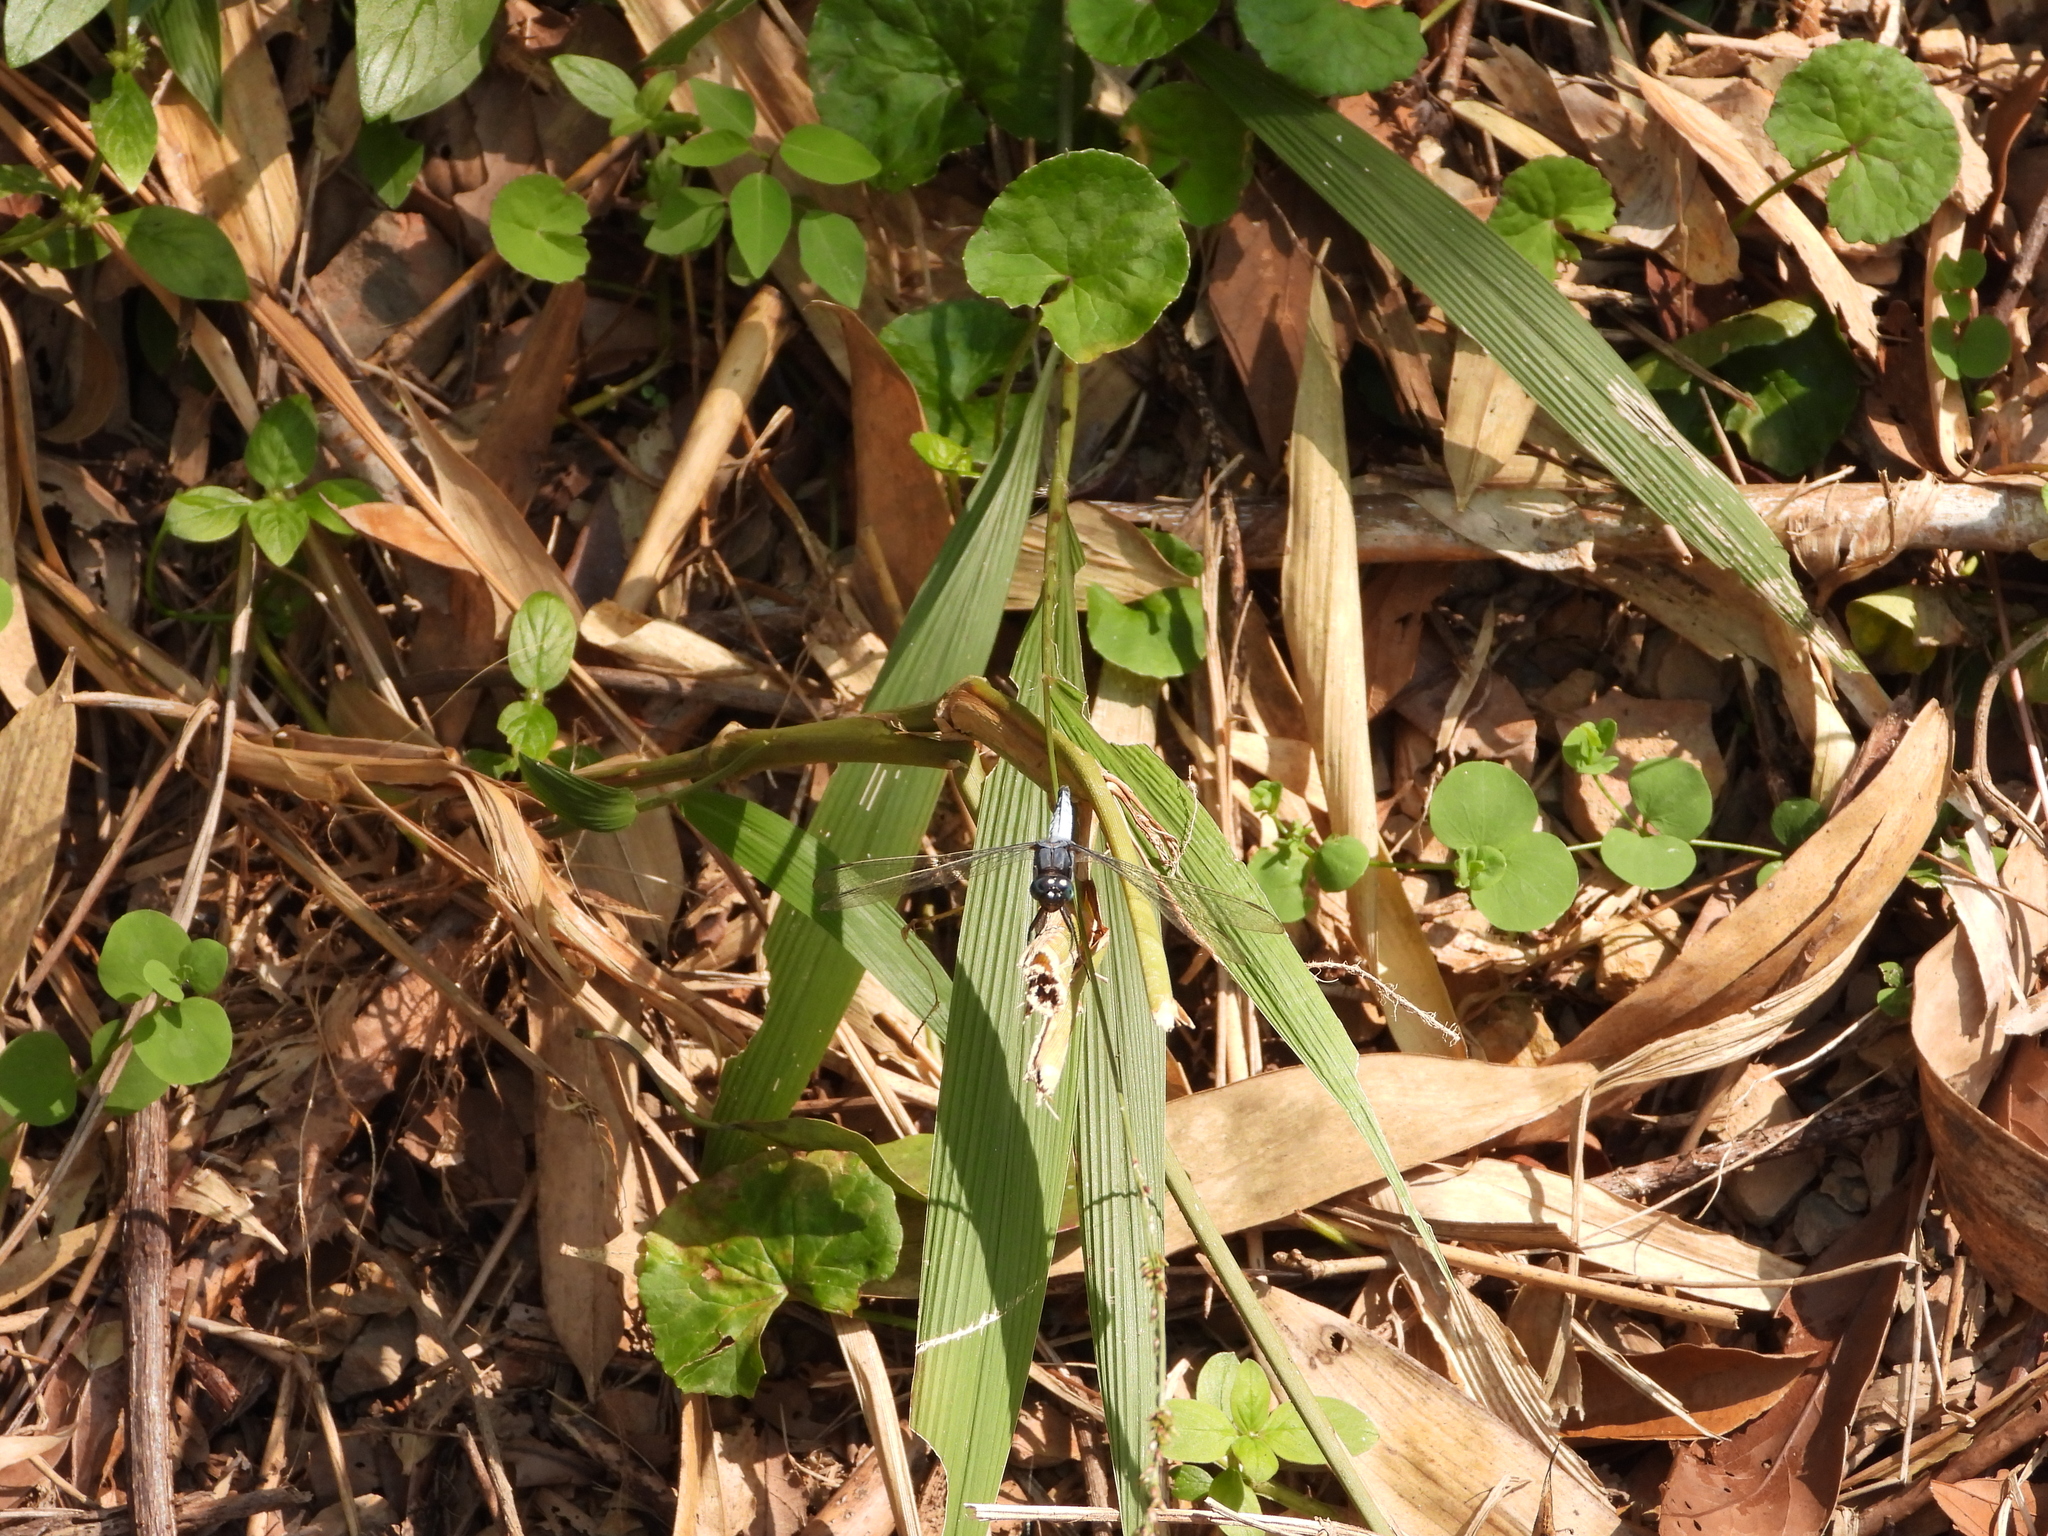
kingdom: Animalia
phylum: Arthropoda
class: Insecta
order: Odonata
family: Libellulidae
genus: Orthetrum
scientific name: Orthetrum glaucum
